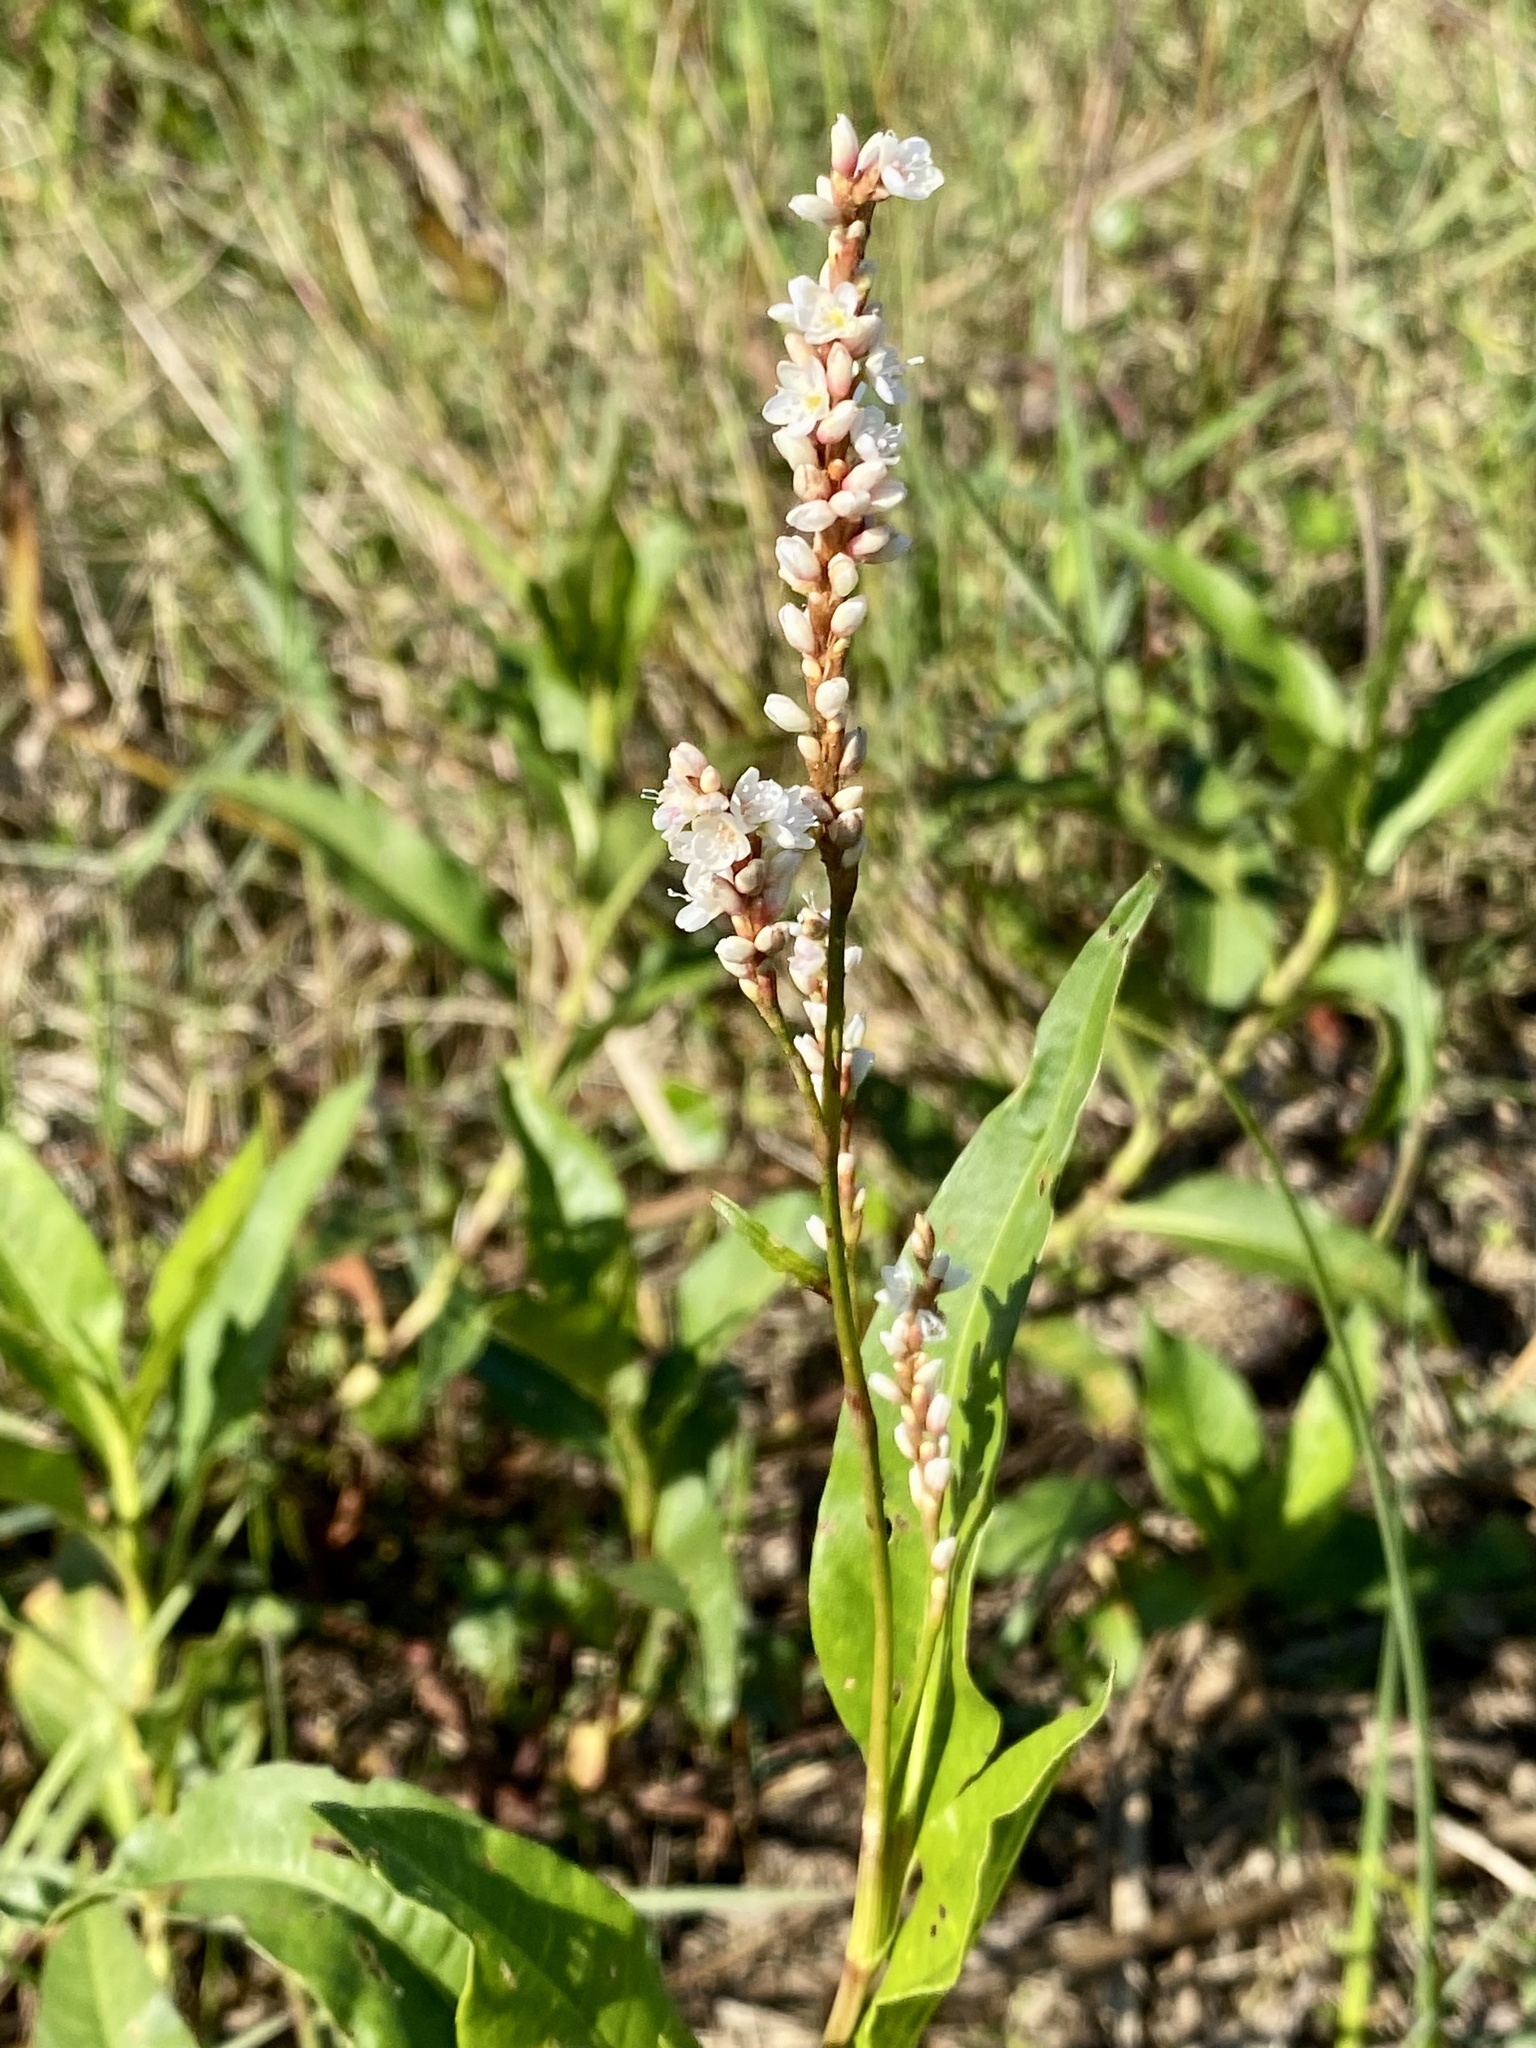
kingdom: Plantae
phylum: Tracheophyta
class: Magnoliopsida
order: Caryophyllales
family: Polygonaceae
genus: Persicaria
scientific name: Persicaria hydropiperoides
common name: Swamp smartweed
